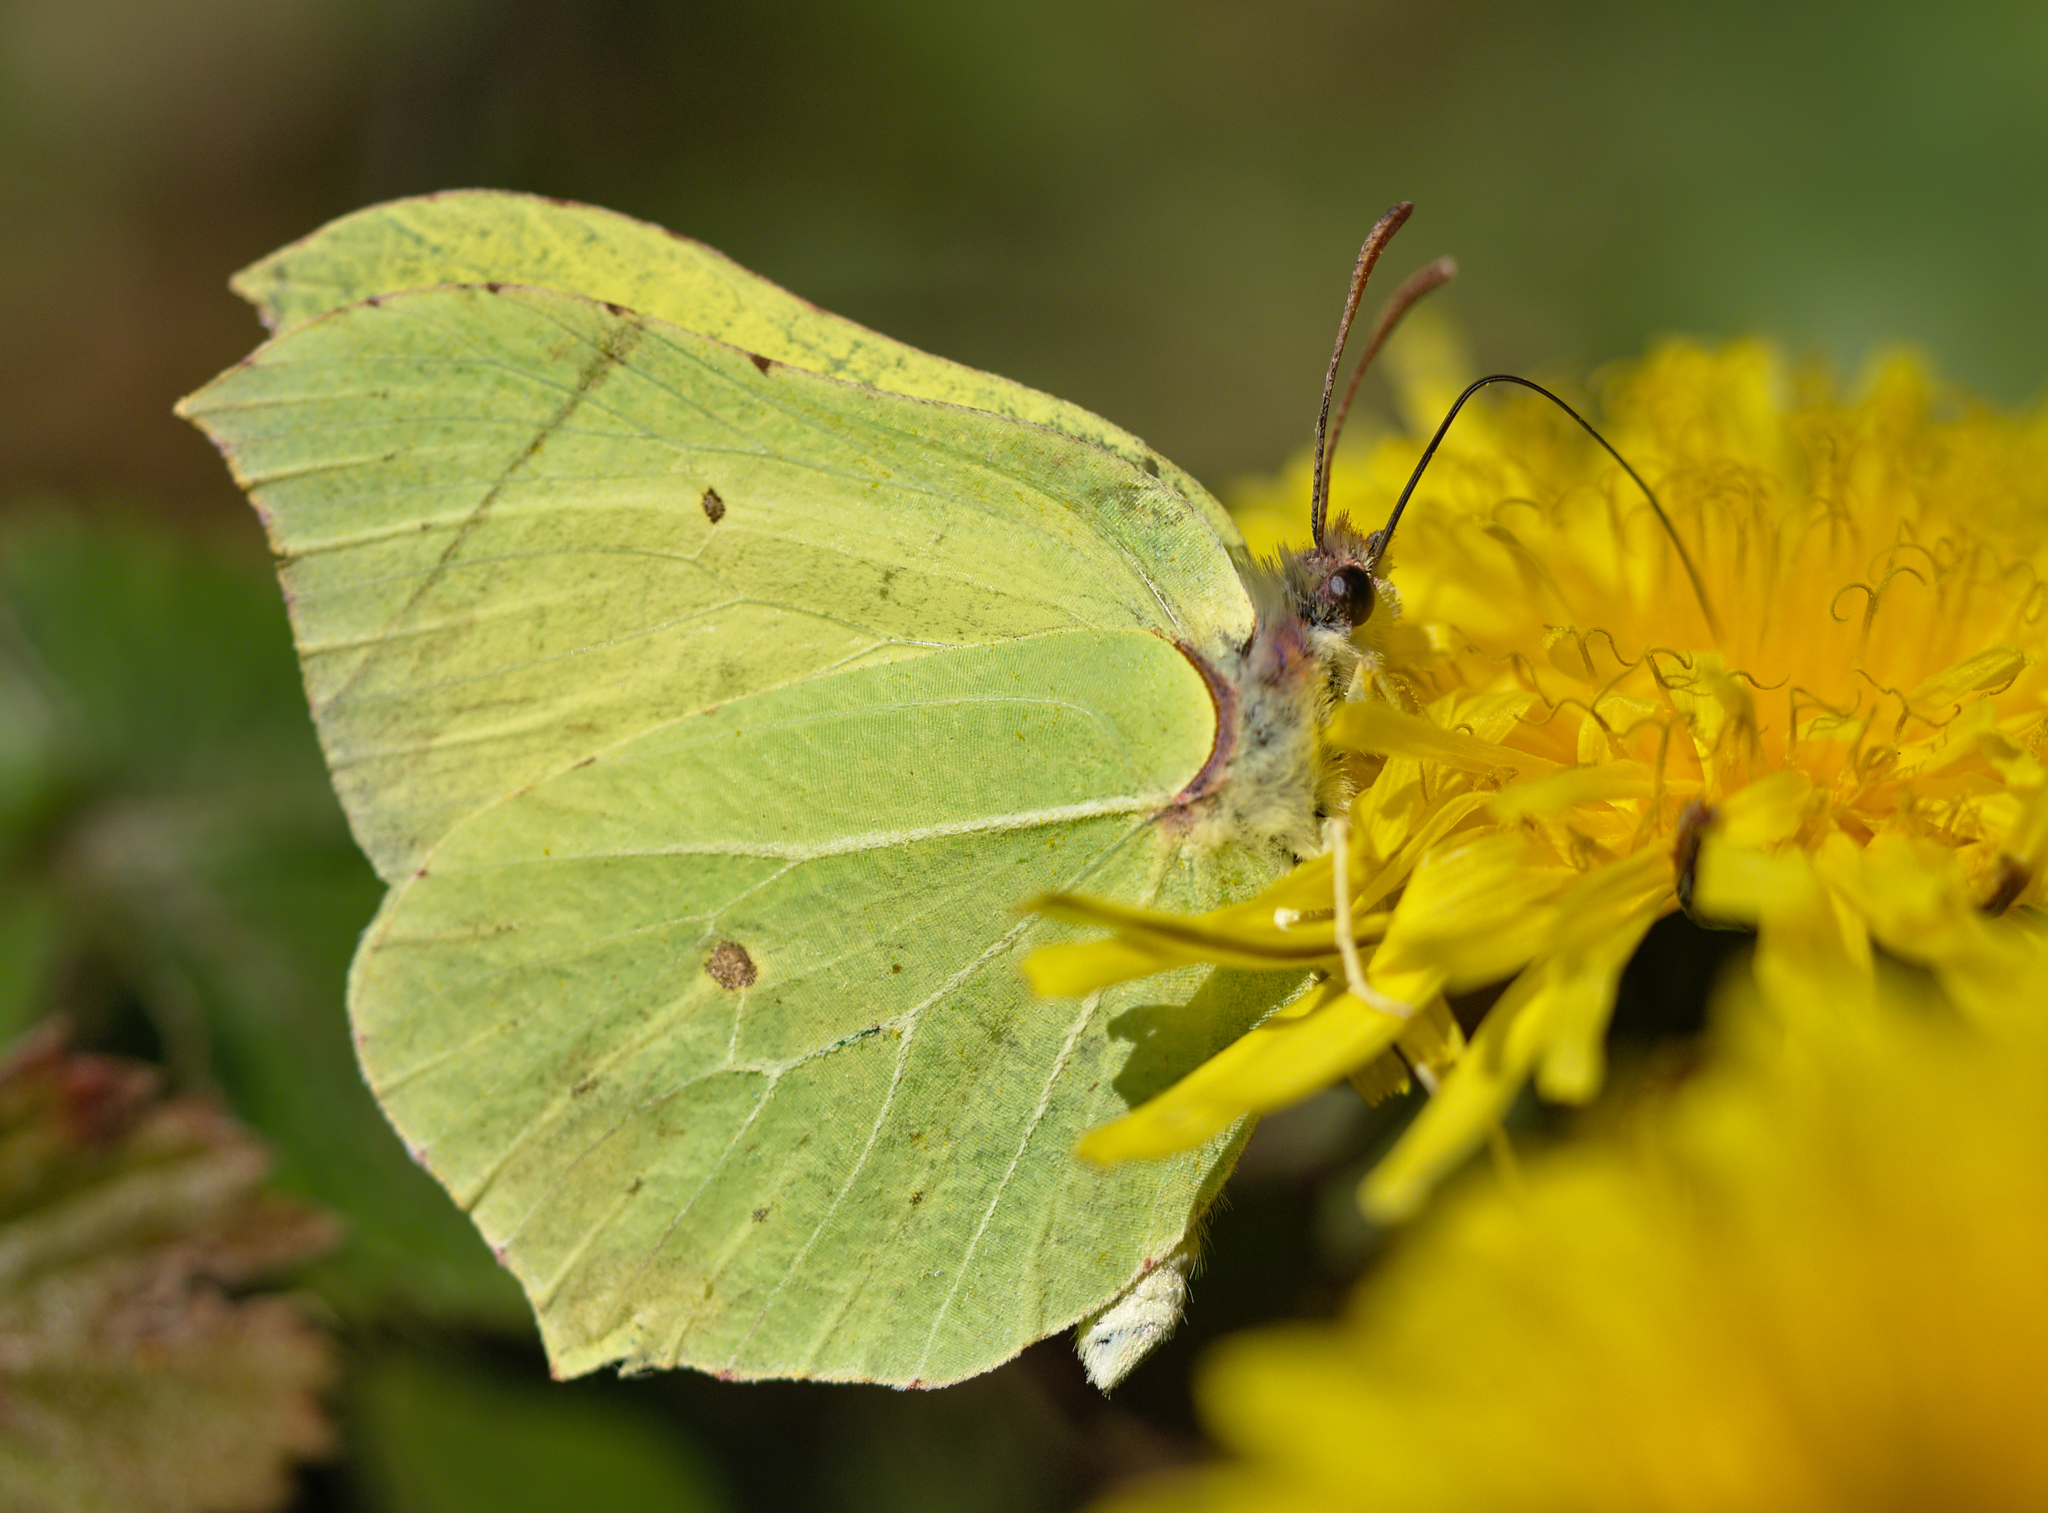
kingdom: Animalia
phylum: Arthropoda
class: Insecta
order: Lepidoptera
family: Pieridae
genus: Gonepteryx
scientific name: Gonepteryx rhamni
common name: Brimstone
